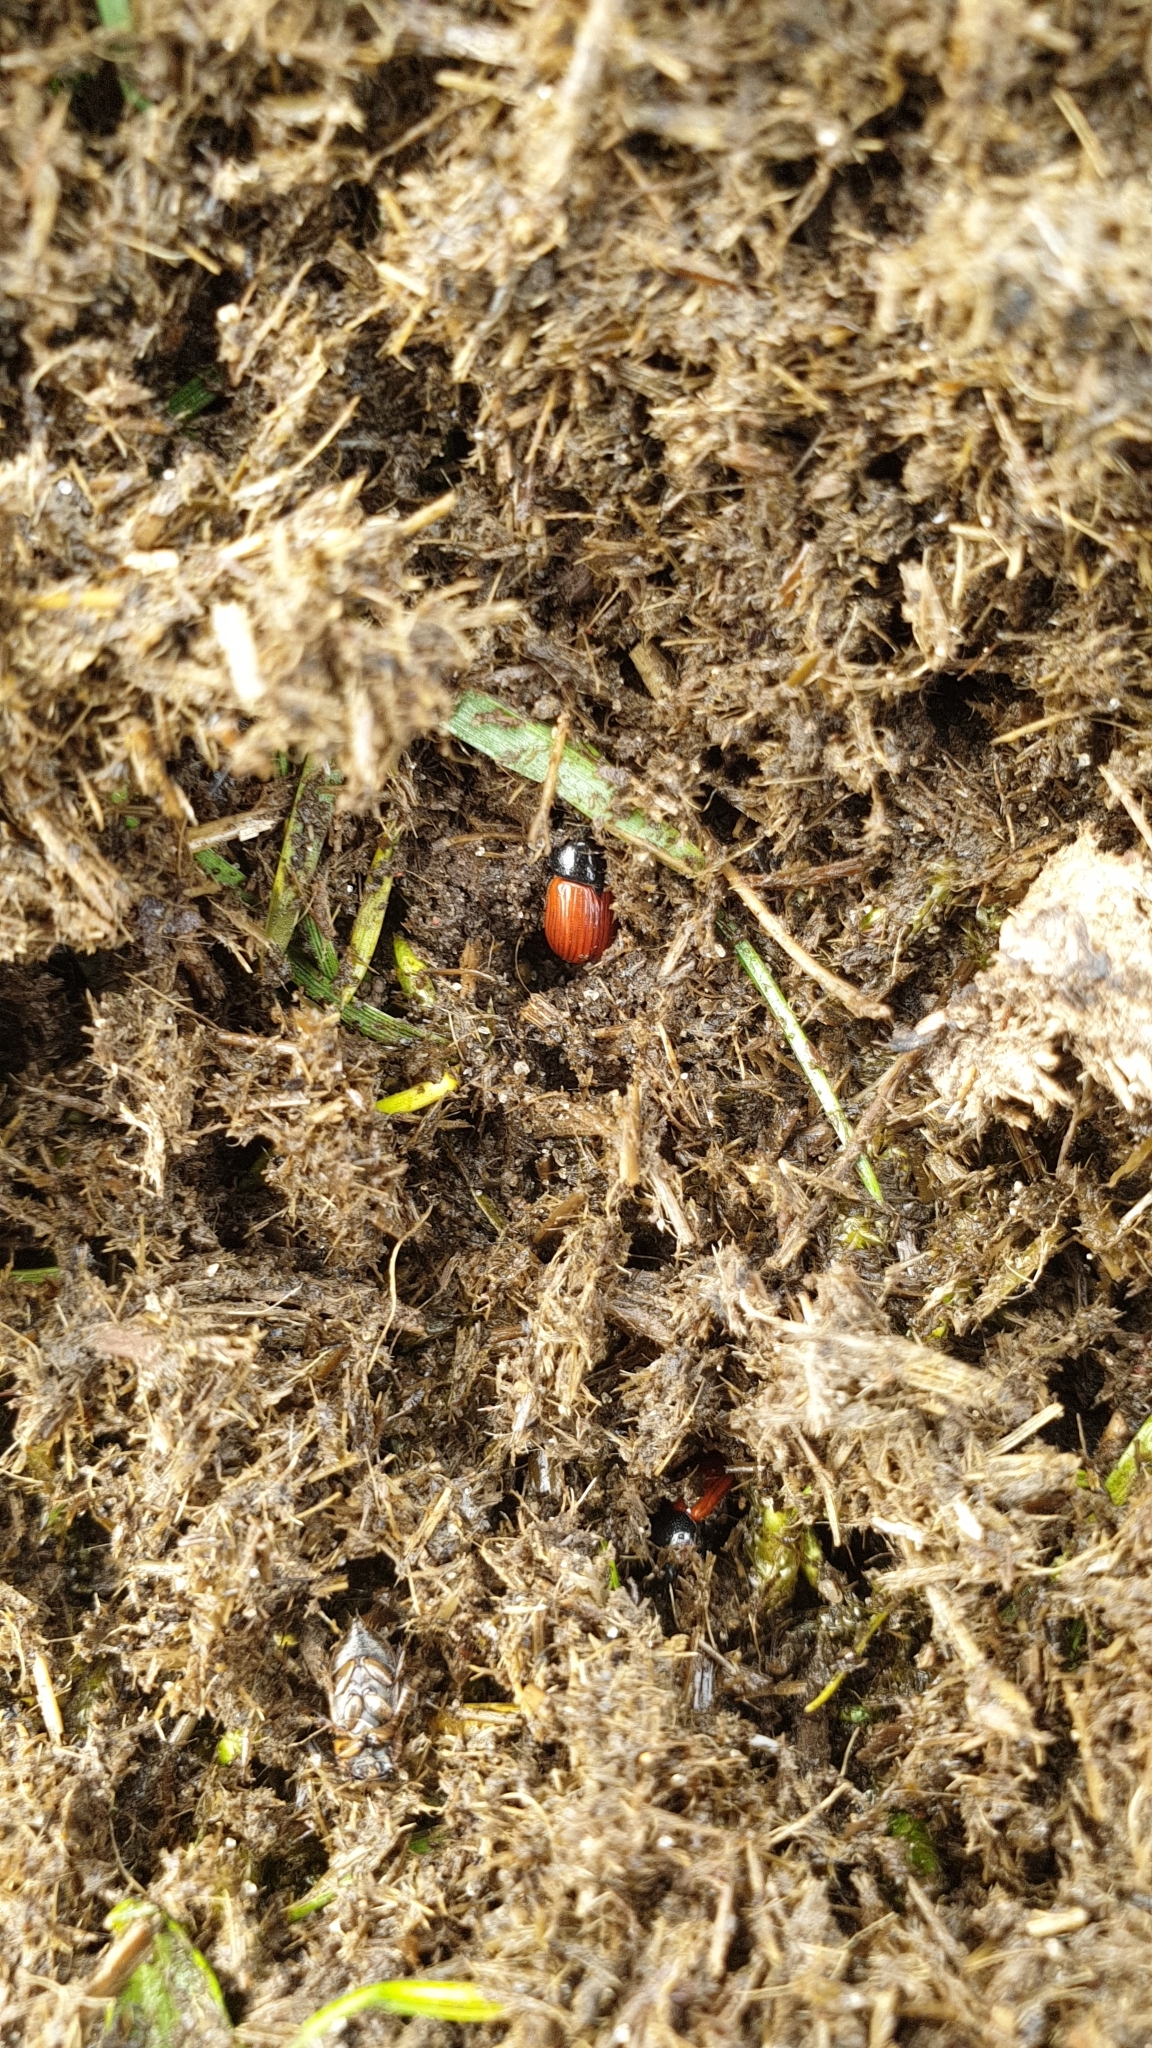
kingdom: Animalia
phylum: Arthropoda
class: Insecta
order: Coleoptera
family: Scarabaeidae
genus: Aphodius
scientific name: Aphodius fimetarius
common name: Common dung beetle
